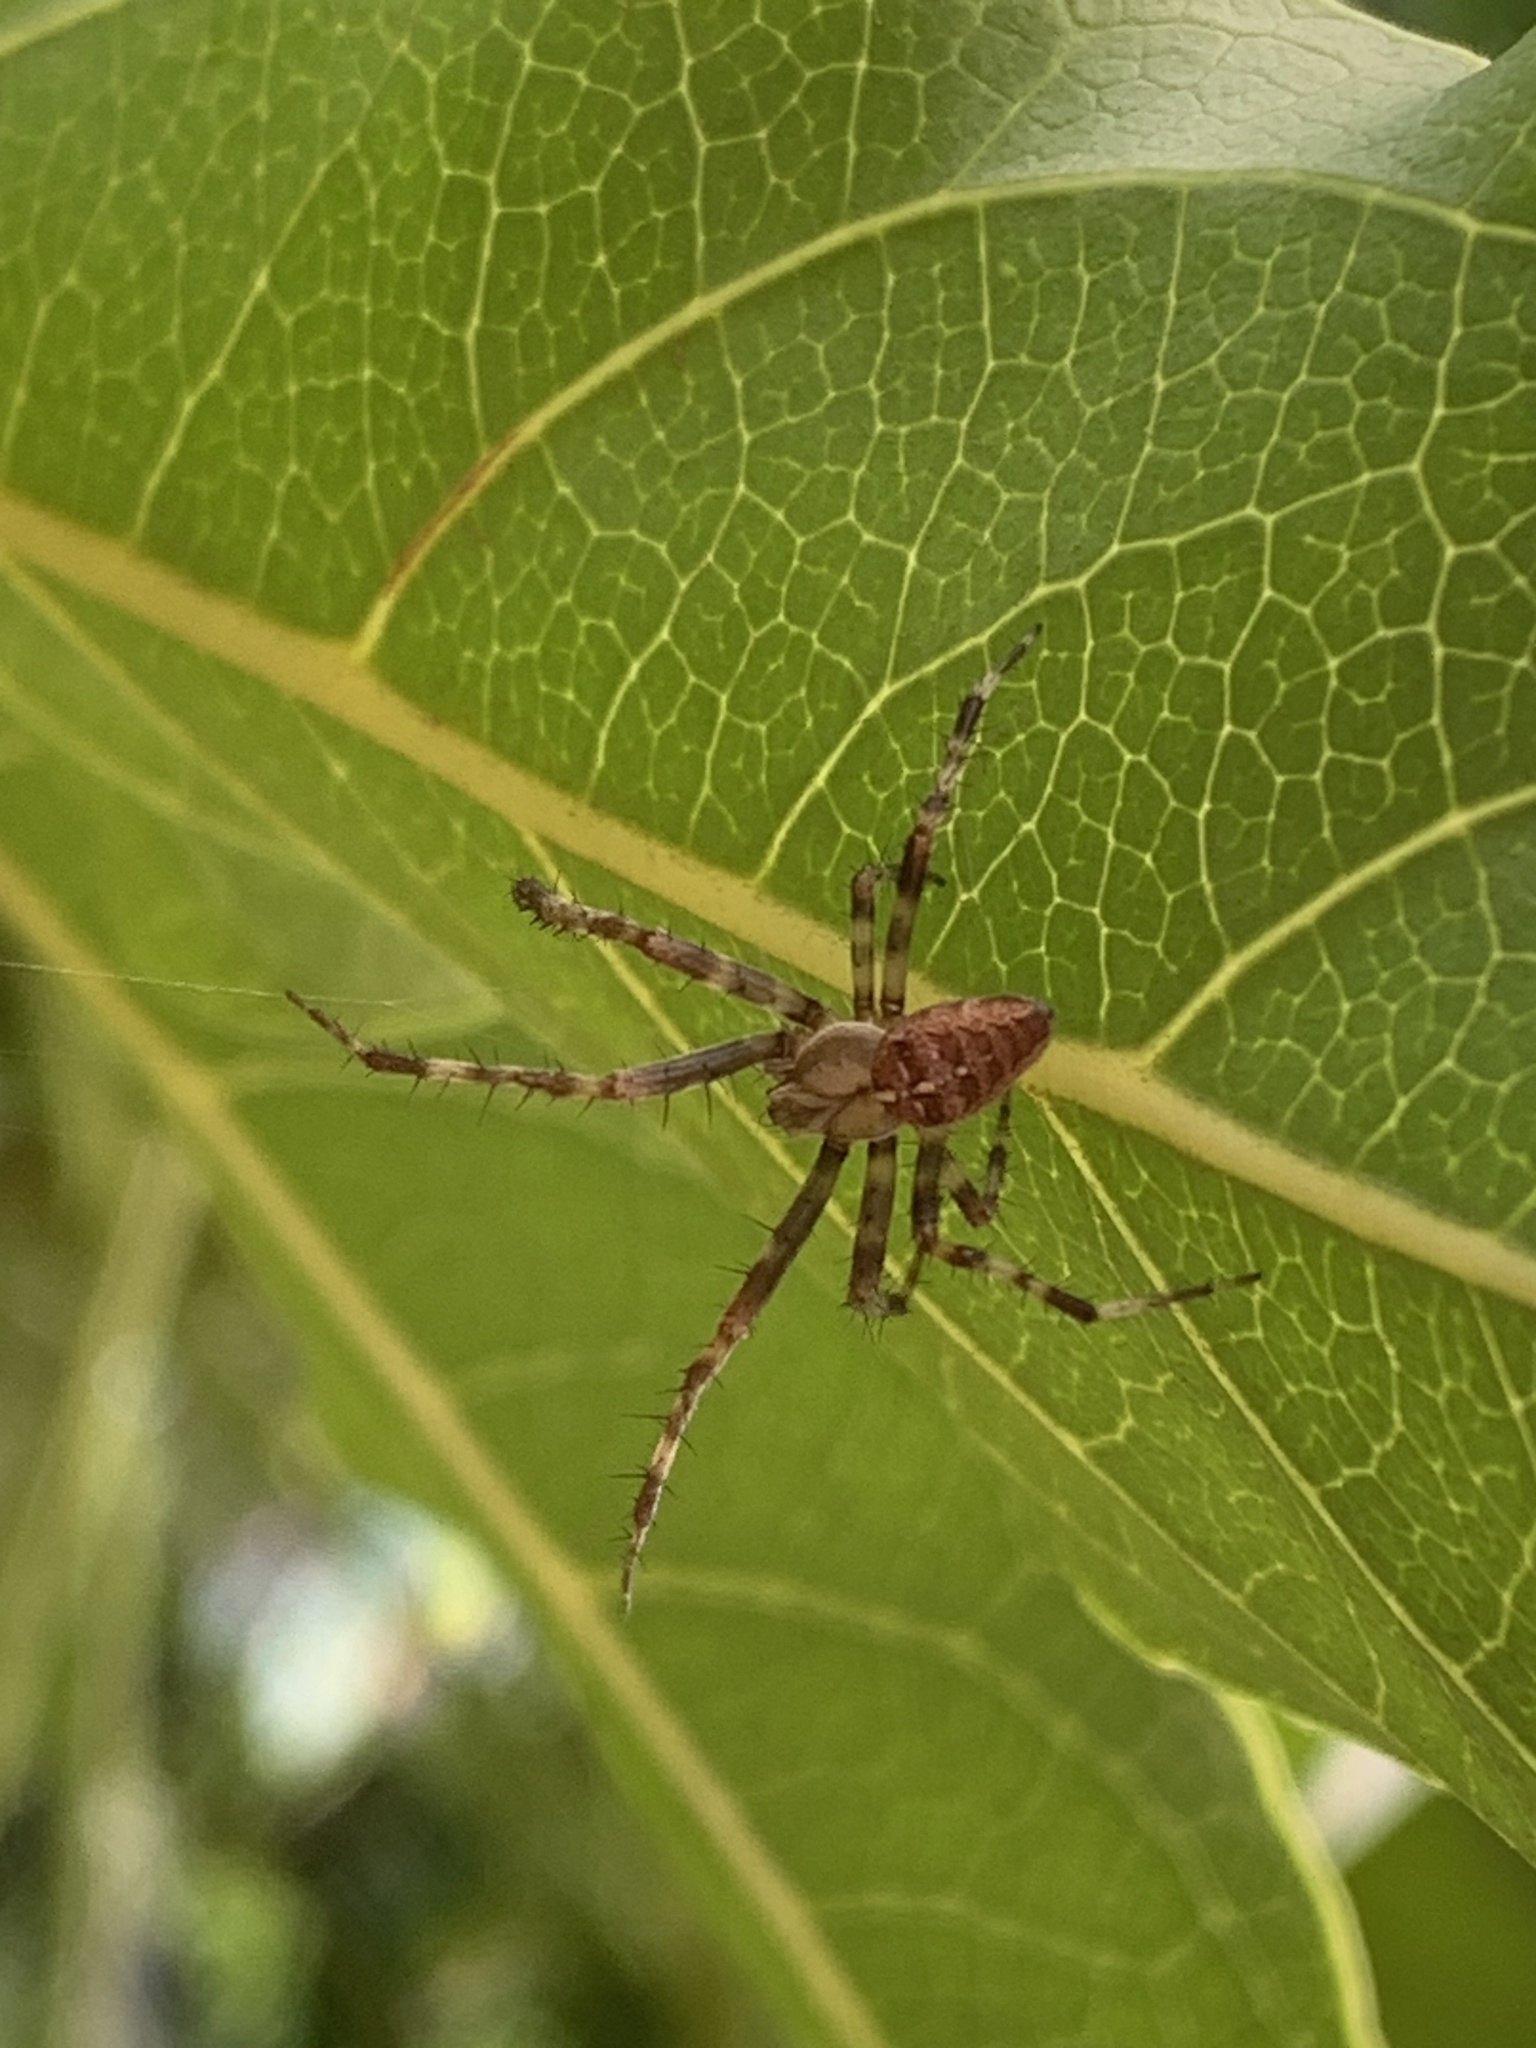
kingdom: Animalia
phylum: Arthropoda
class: Arachnida
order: Araneae
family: Araneidae
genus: Araneus
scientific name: Araneus diadematus
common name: Cross orbweaver
